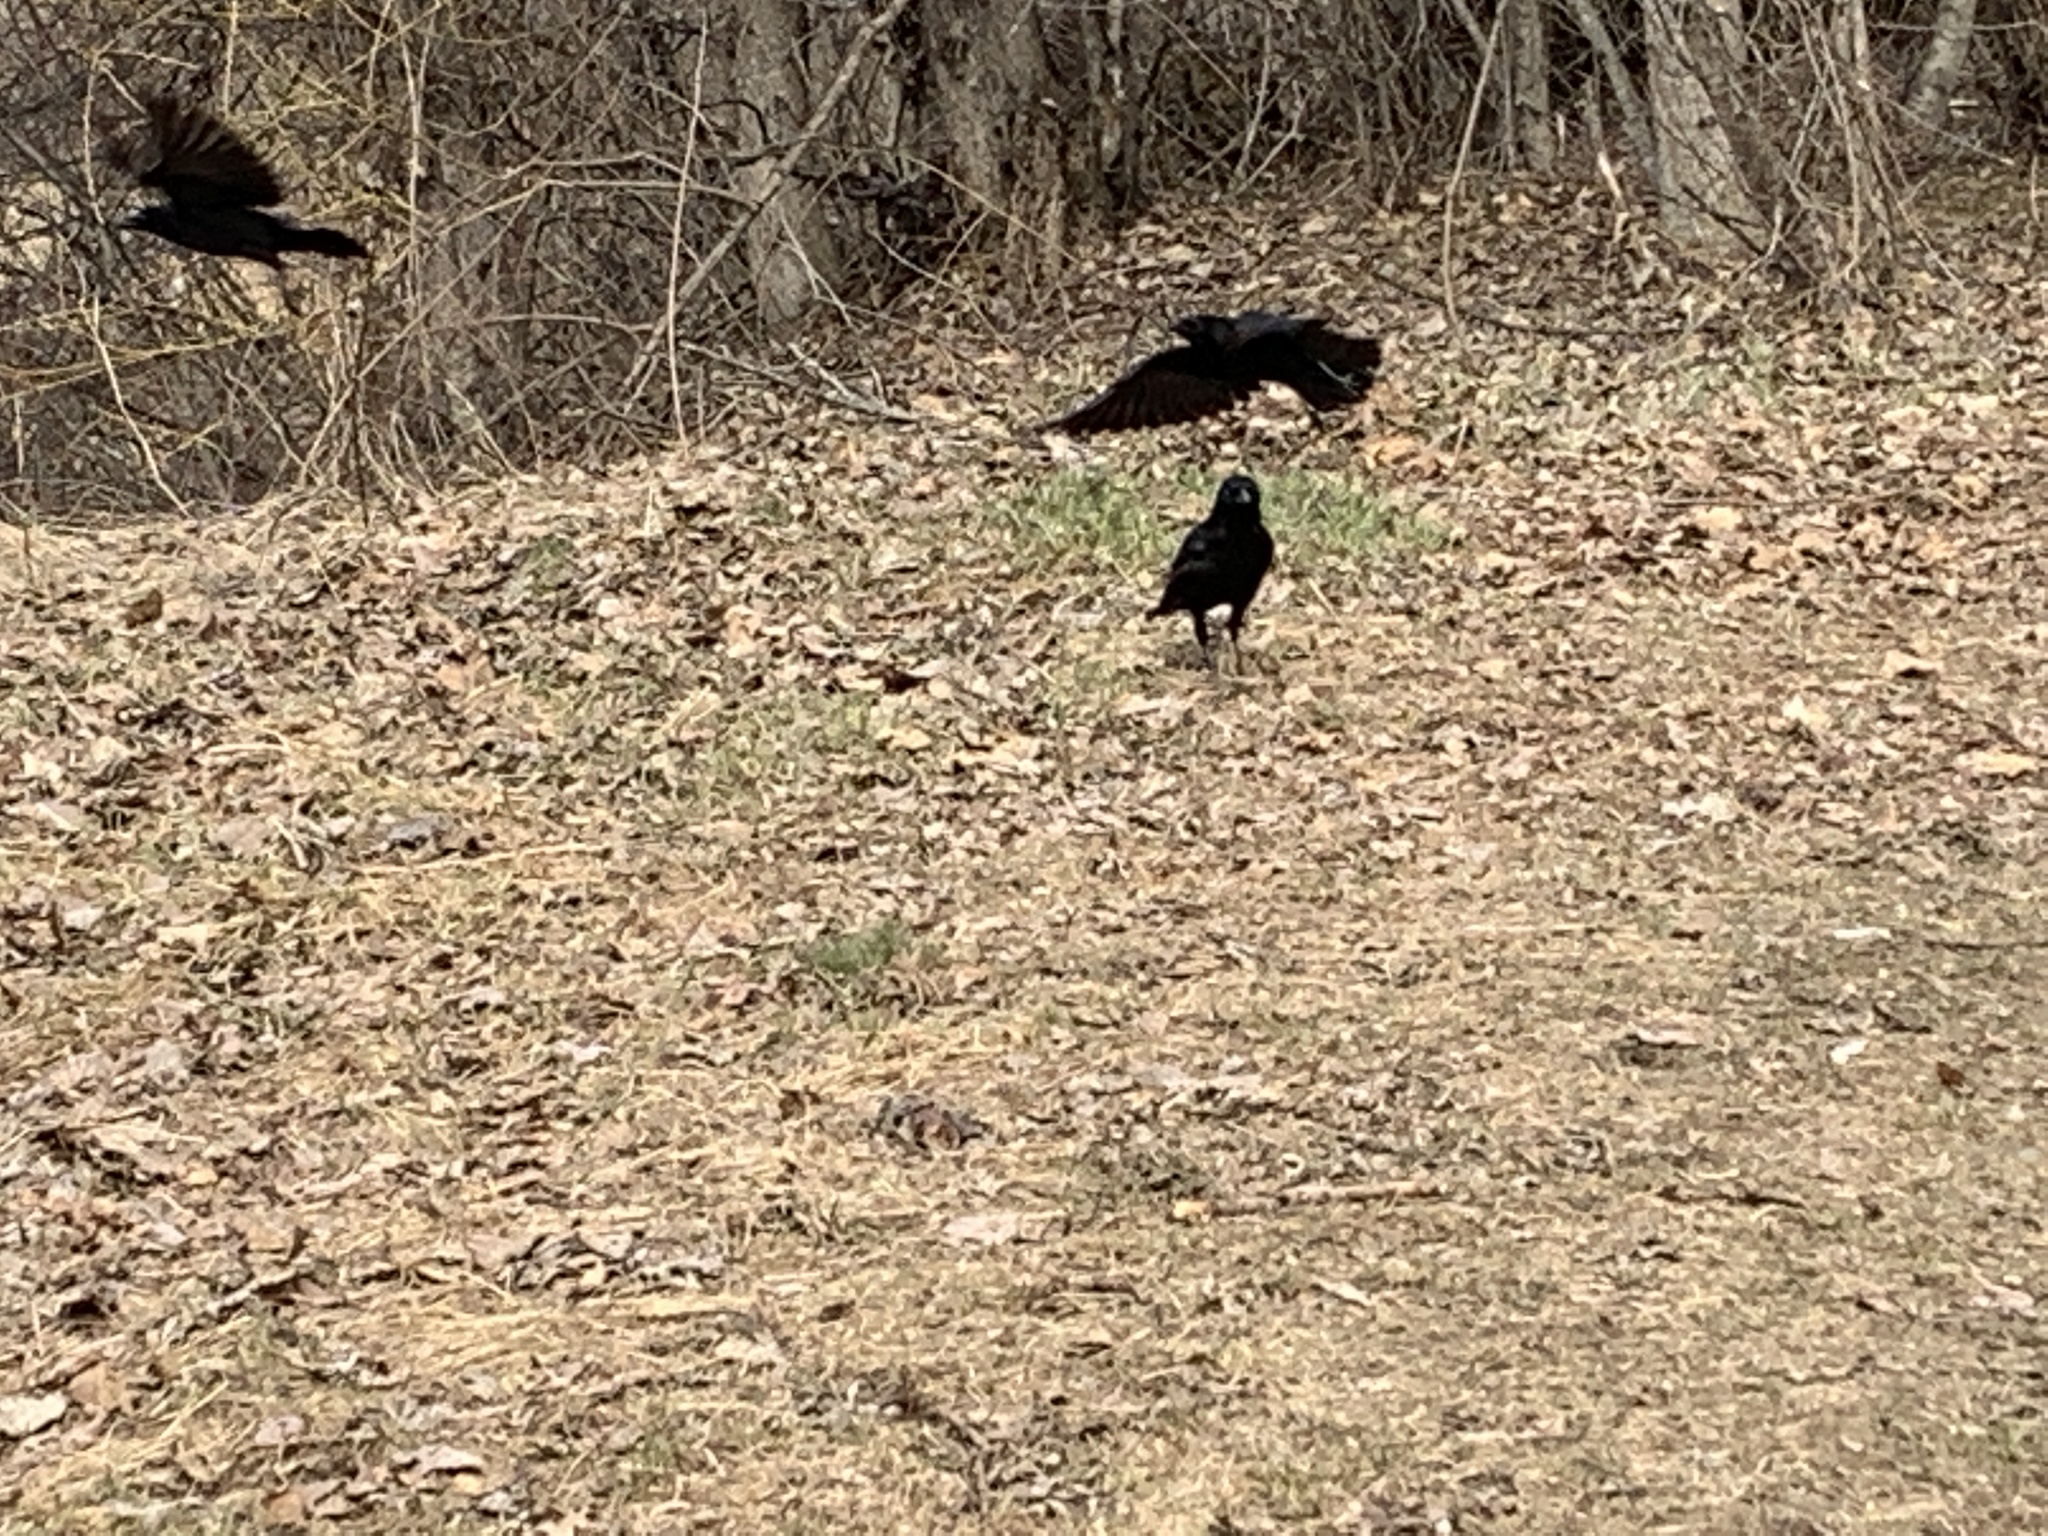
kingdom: Animalia
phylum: Chordata
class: Aves
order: Passeriformes
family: Corvidae
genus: Corvus
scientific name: Corvus brachyrhynchos
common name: American crow
